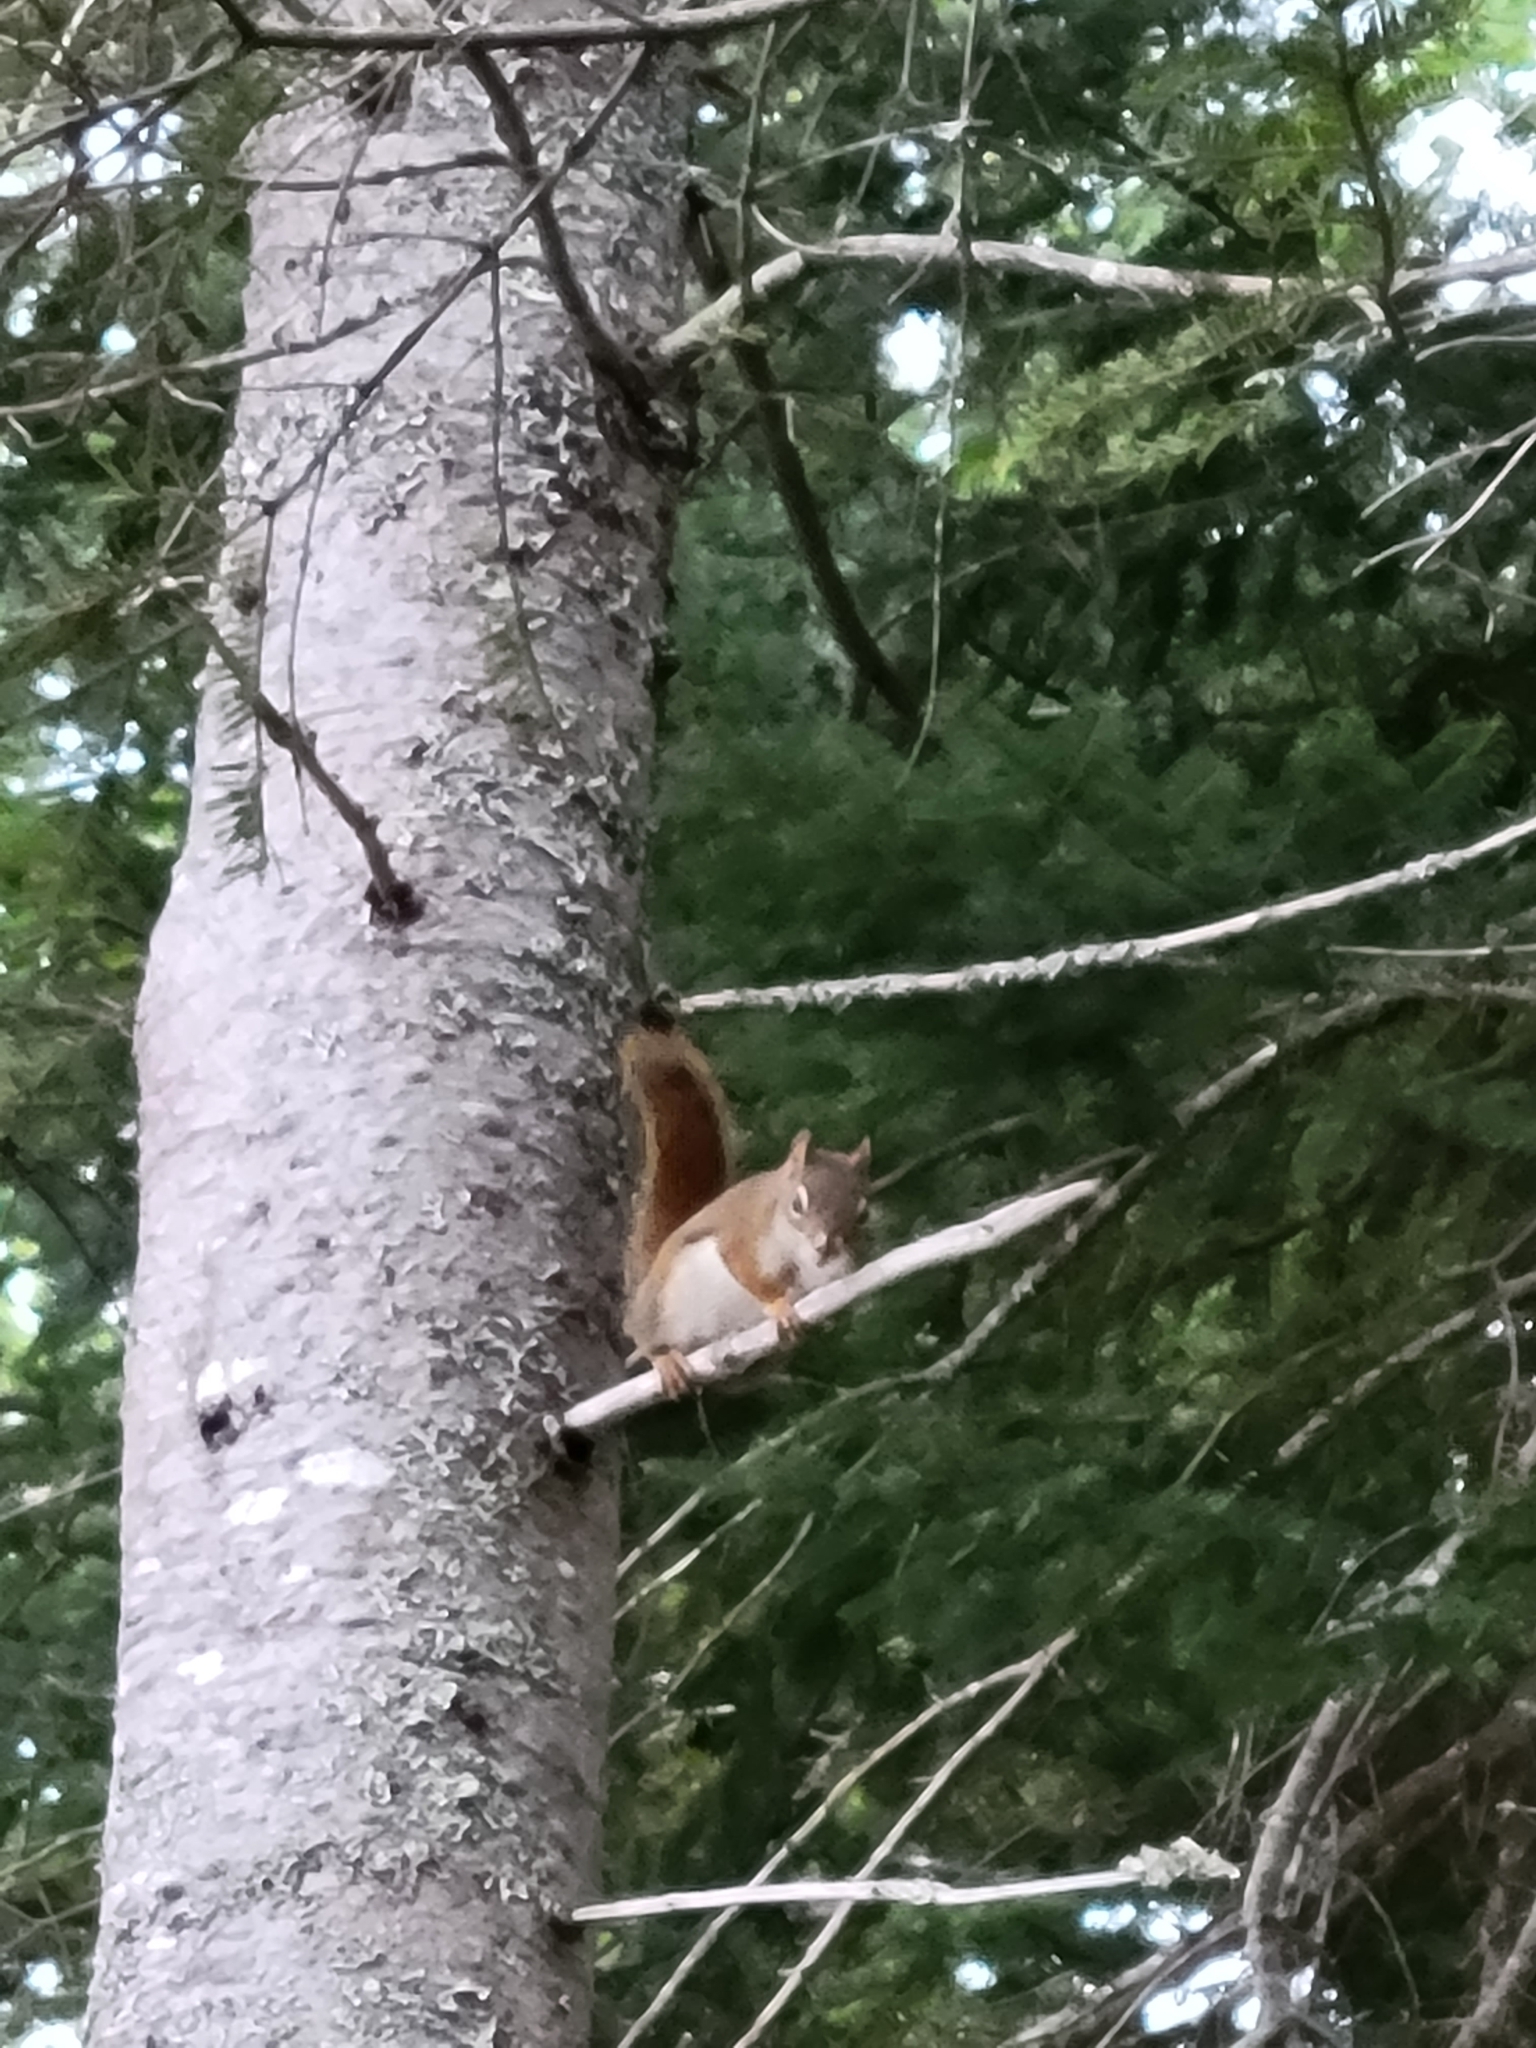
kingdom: Animalia
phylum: Chordata
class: Mammalia
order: Rodentia
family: Sciuridae
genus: Tamiasciurus
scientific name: Tamiasciurus hudsonicus
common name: Red squirrel
